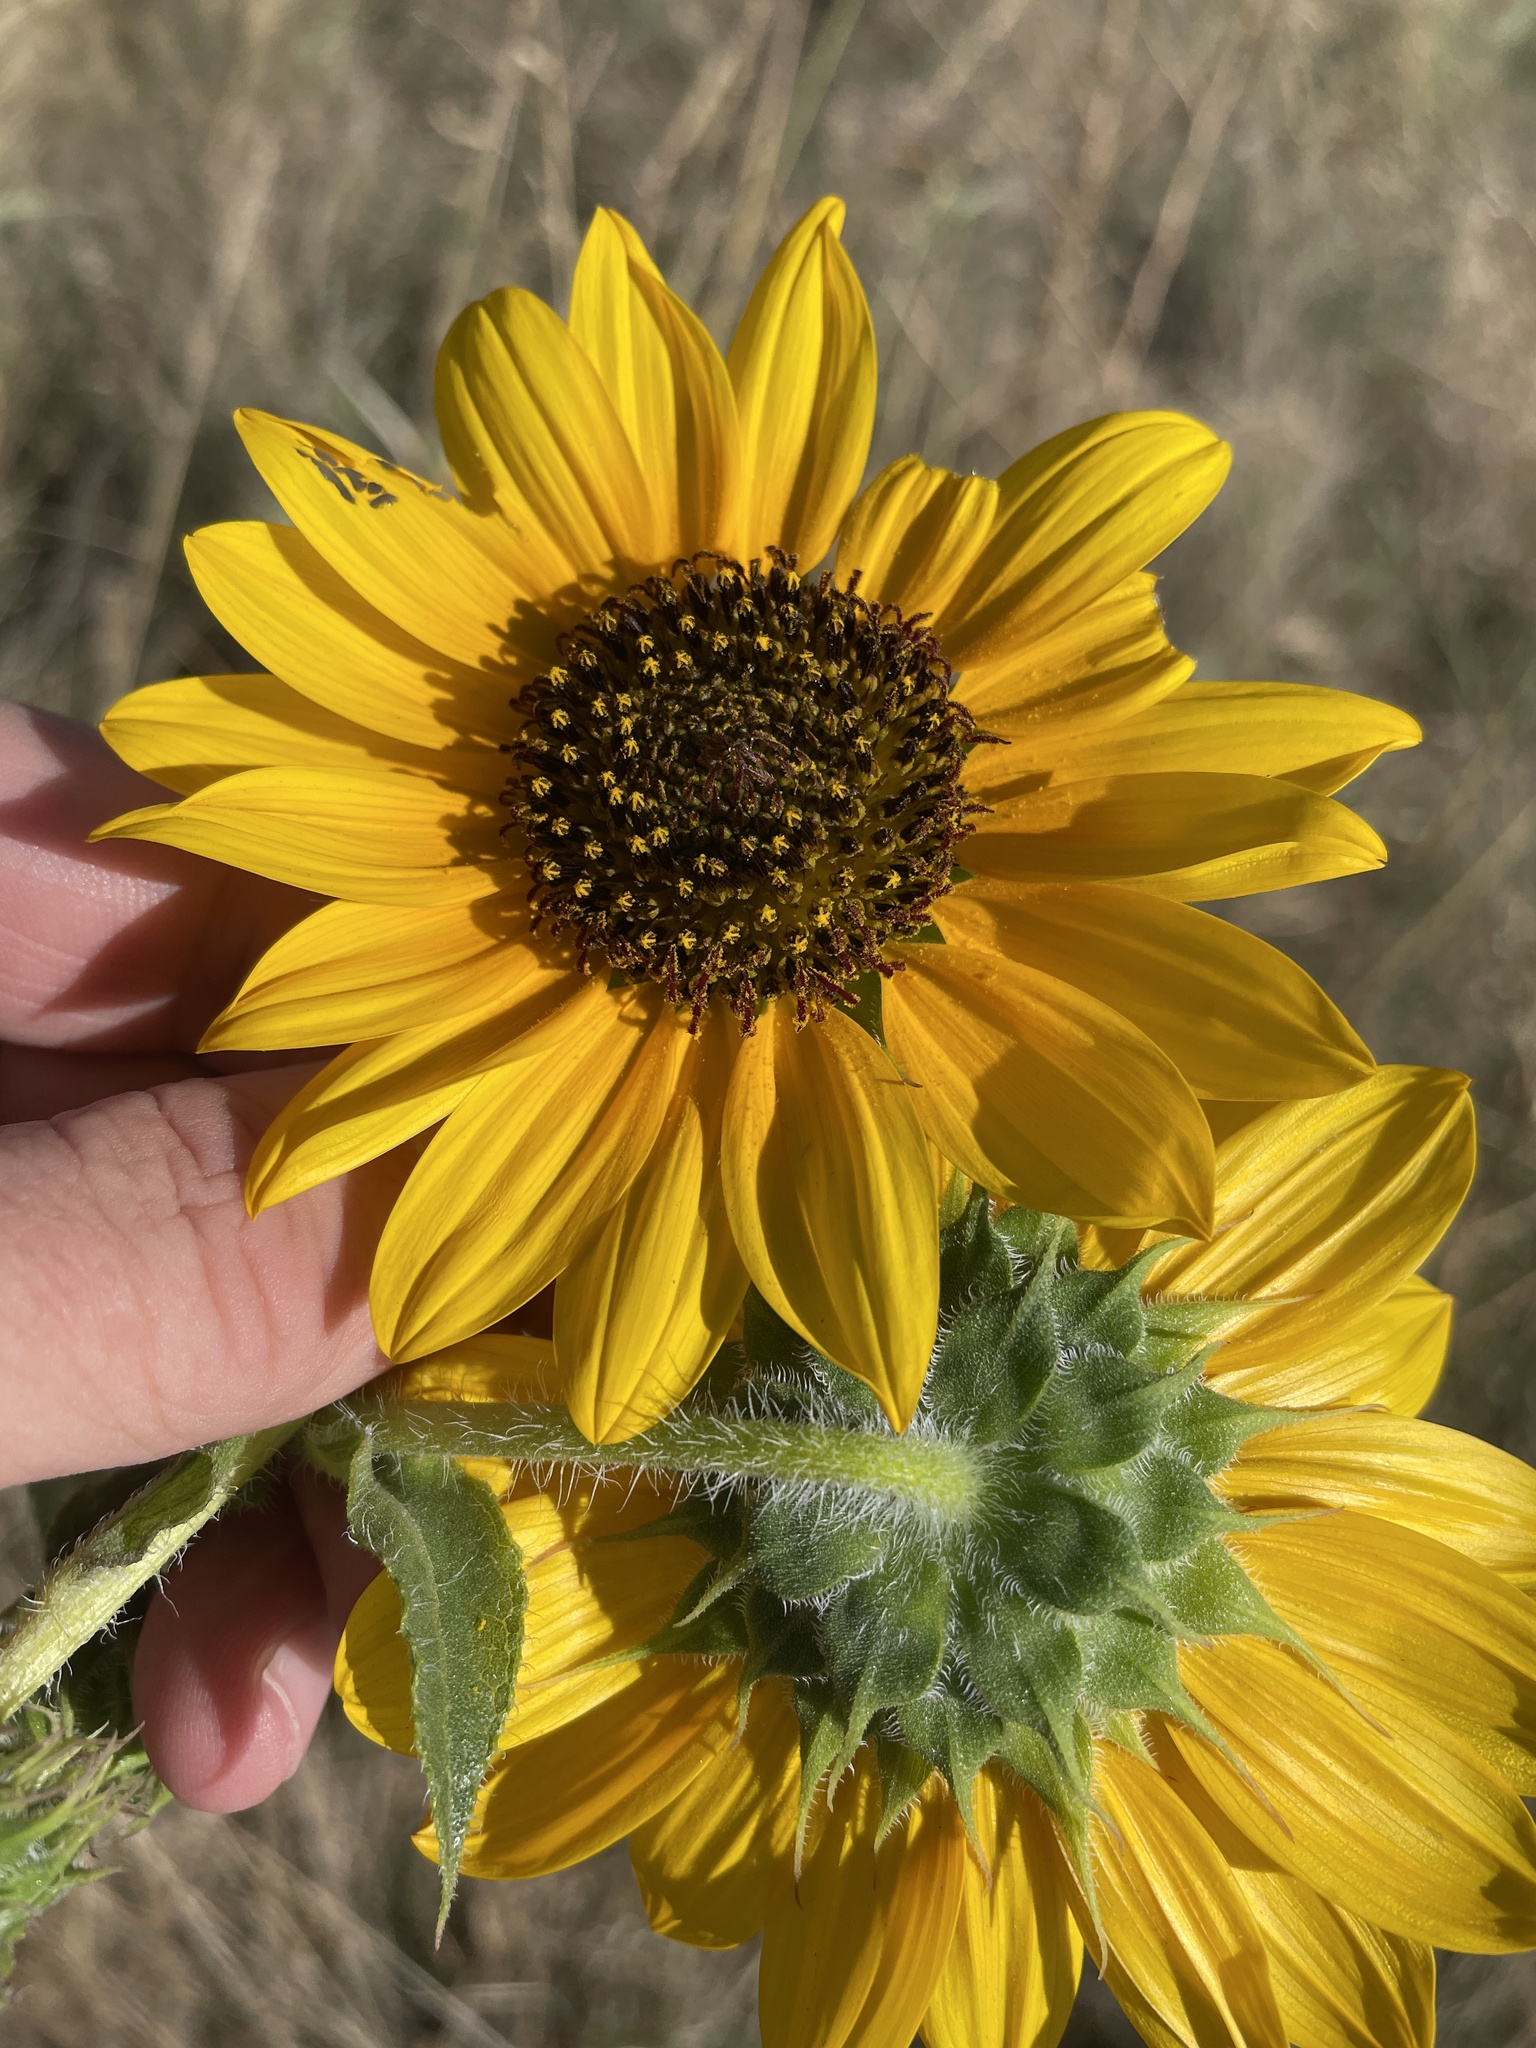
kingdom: Plantae
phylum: Tracheophyta
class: Magnoliopsida
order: Asterales
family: Asteraceae
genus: Helianthus
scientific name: Helianthus annuus
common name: Sunflower
